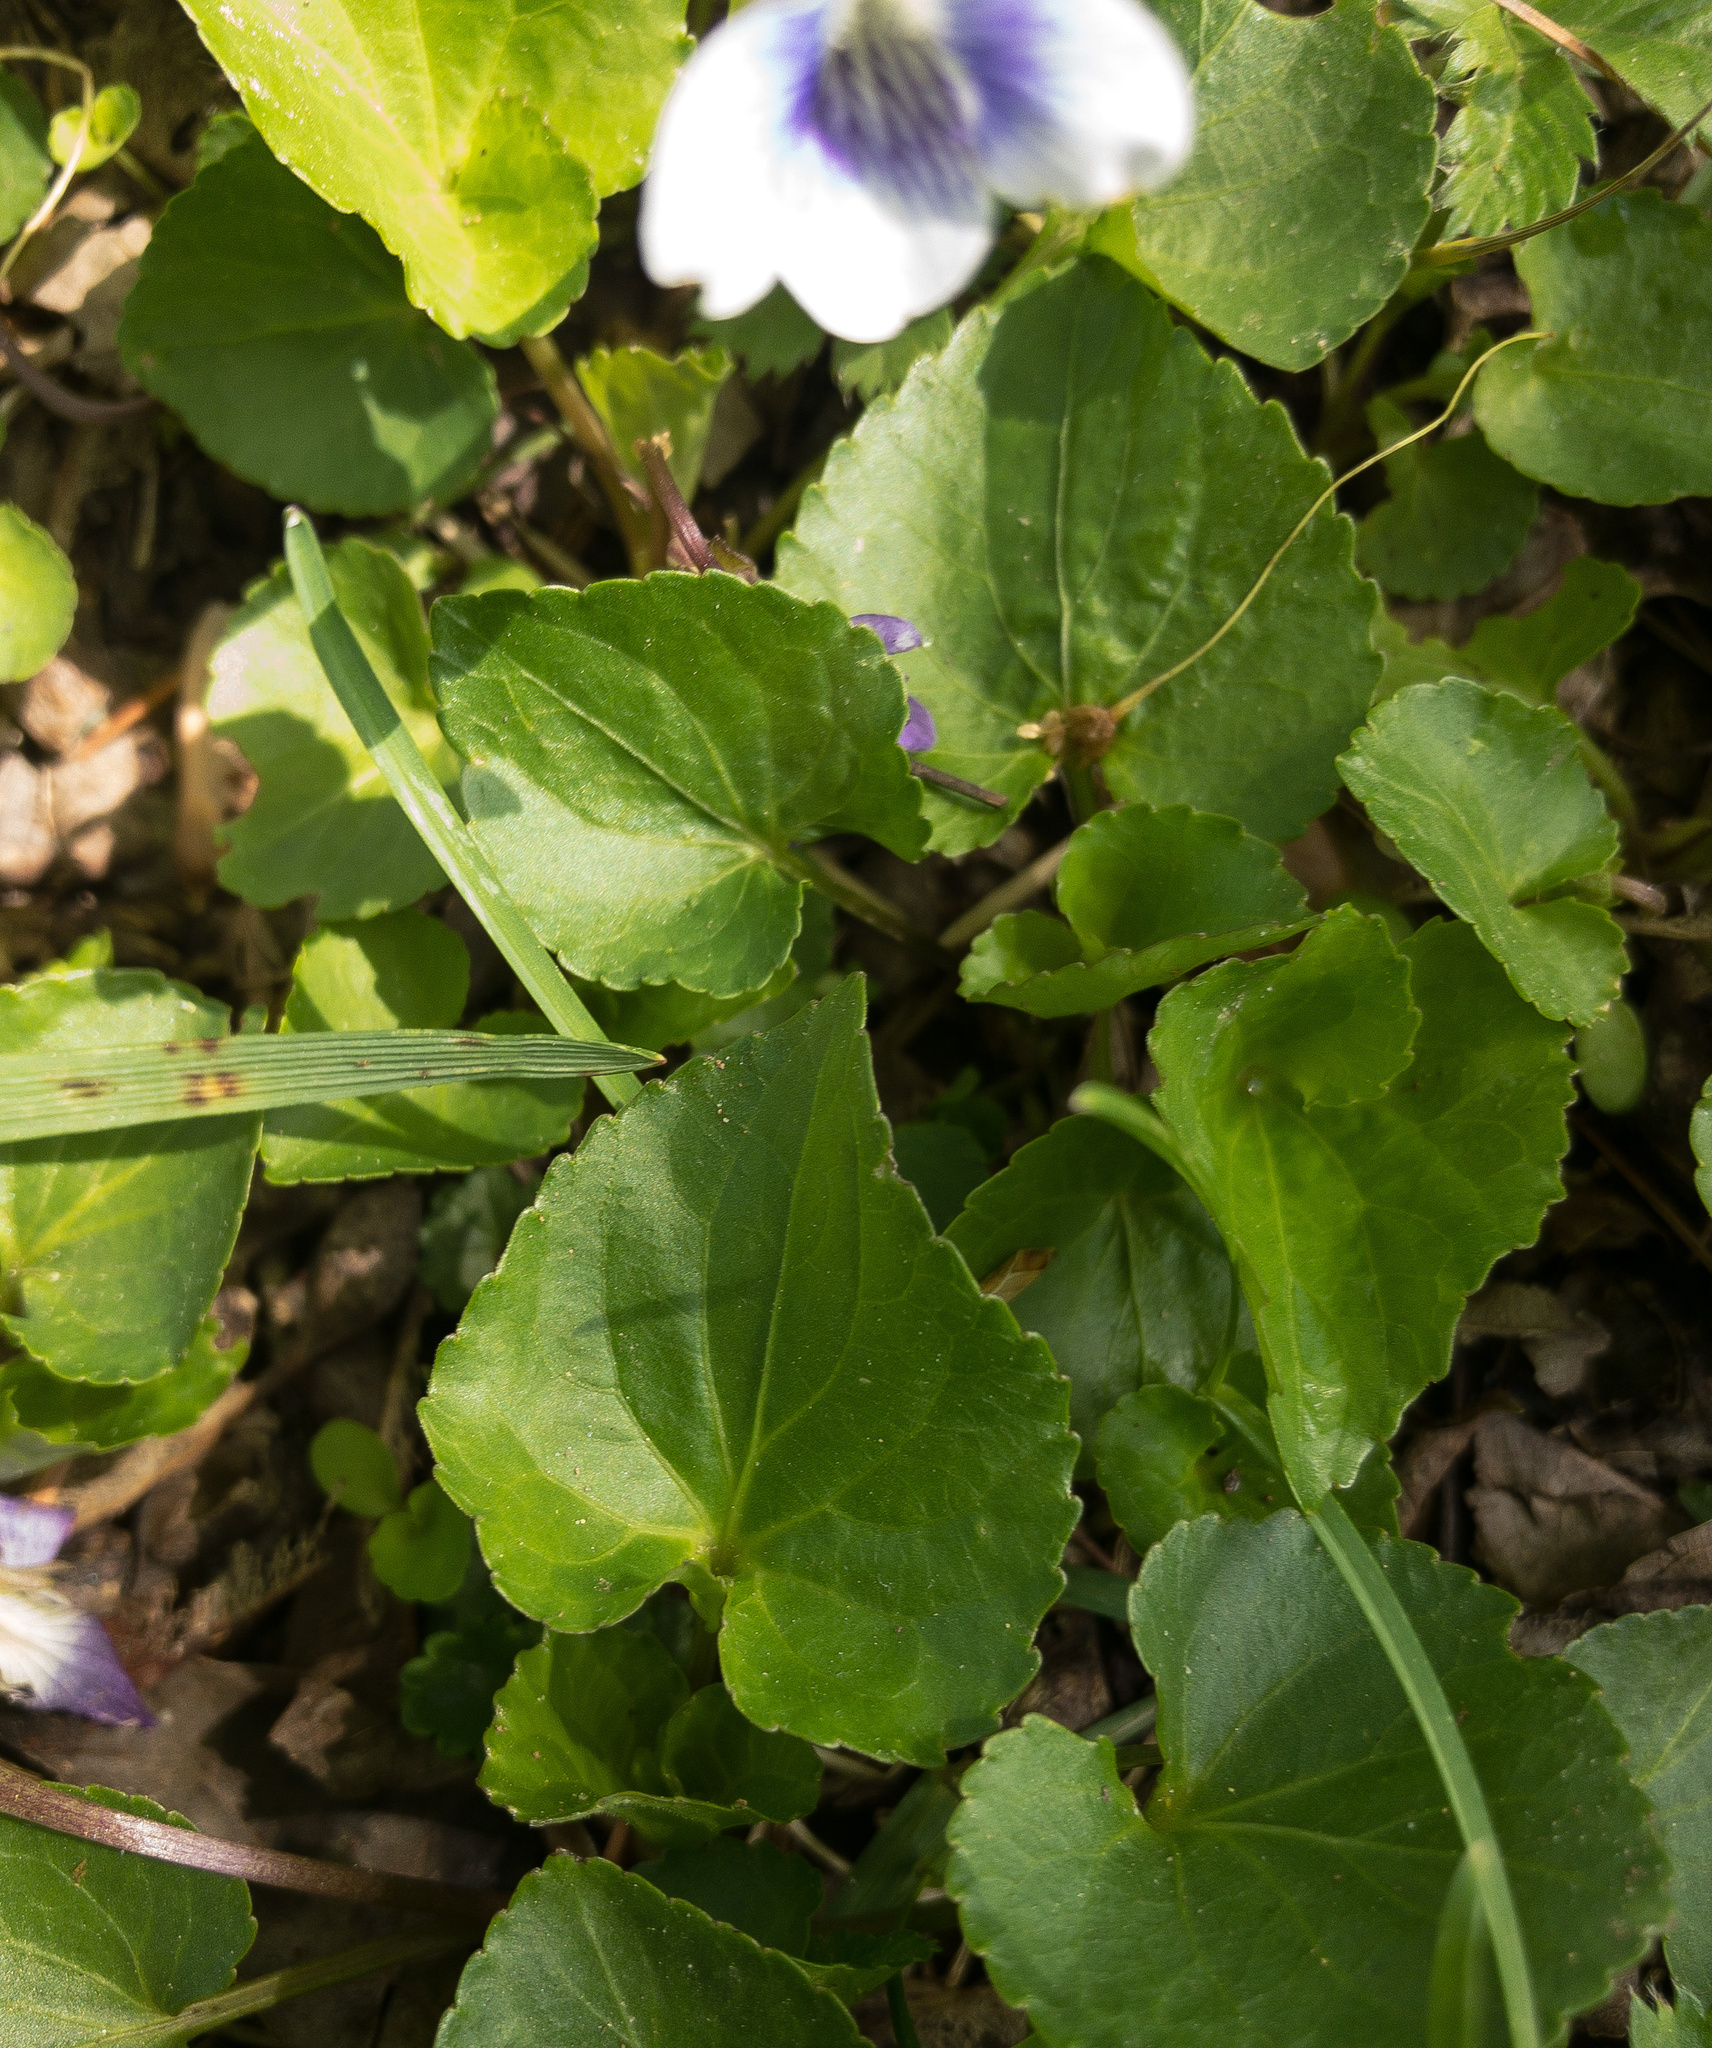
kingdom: Plantae
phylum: Tracheophyta
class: Magnoliopsida
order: Malpighiales
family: Violaceae
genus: Viola
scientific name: Viola sororia
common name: Dooryard violet
